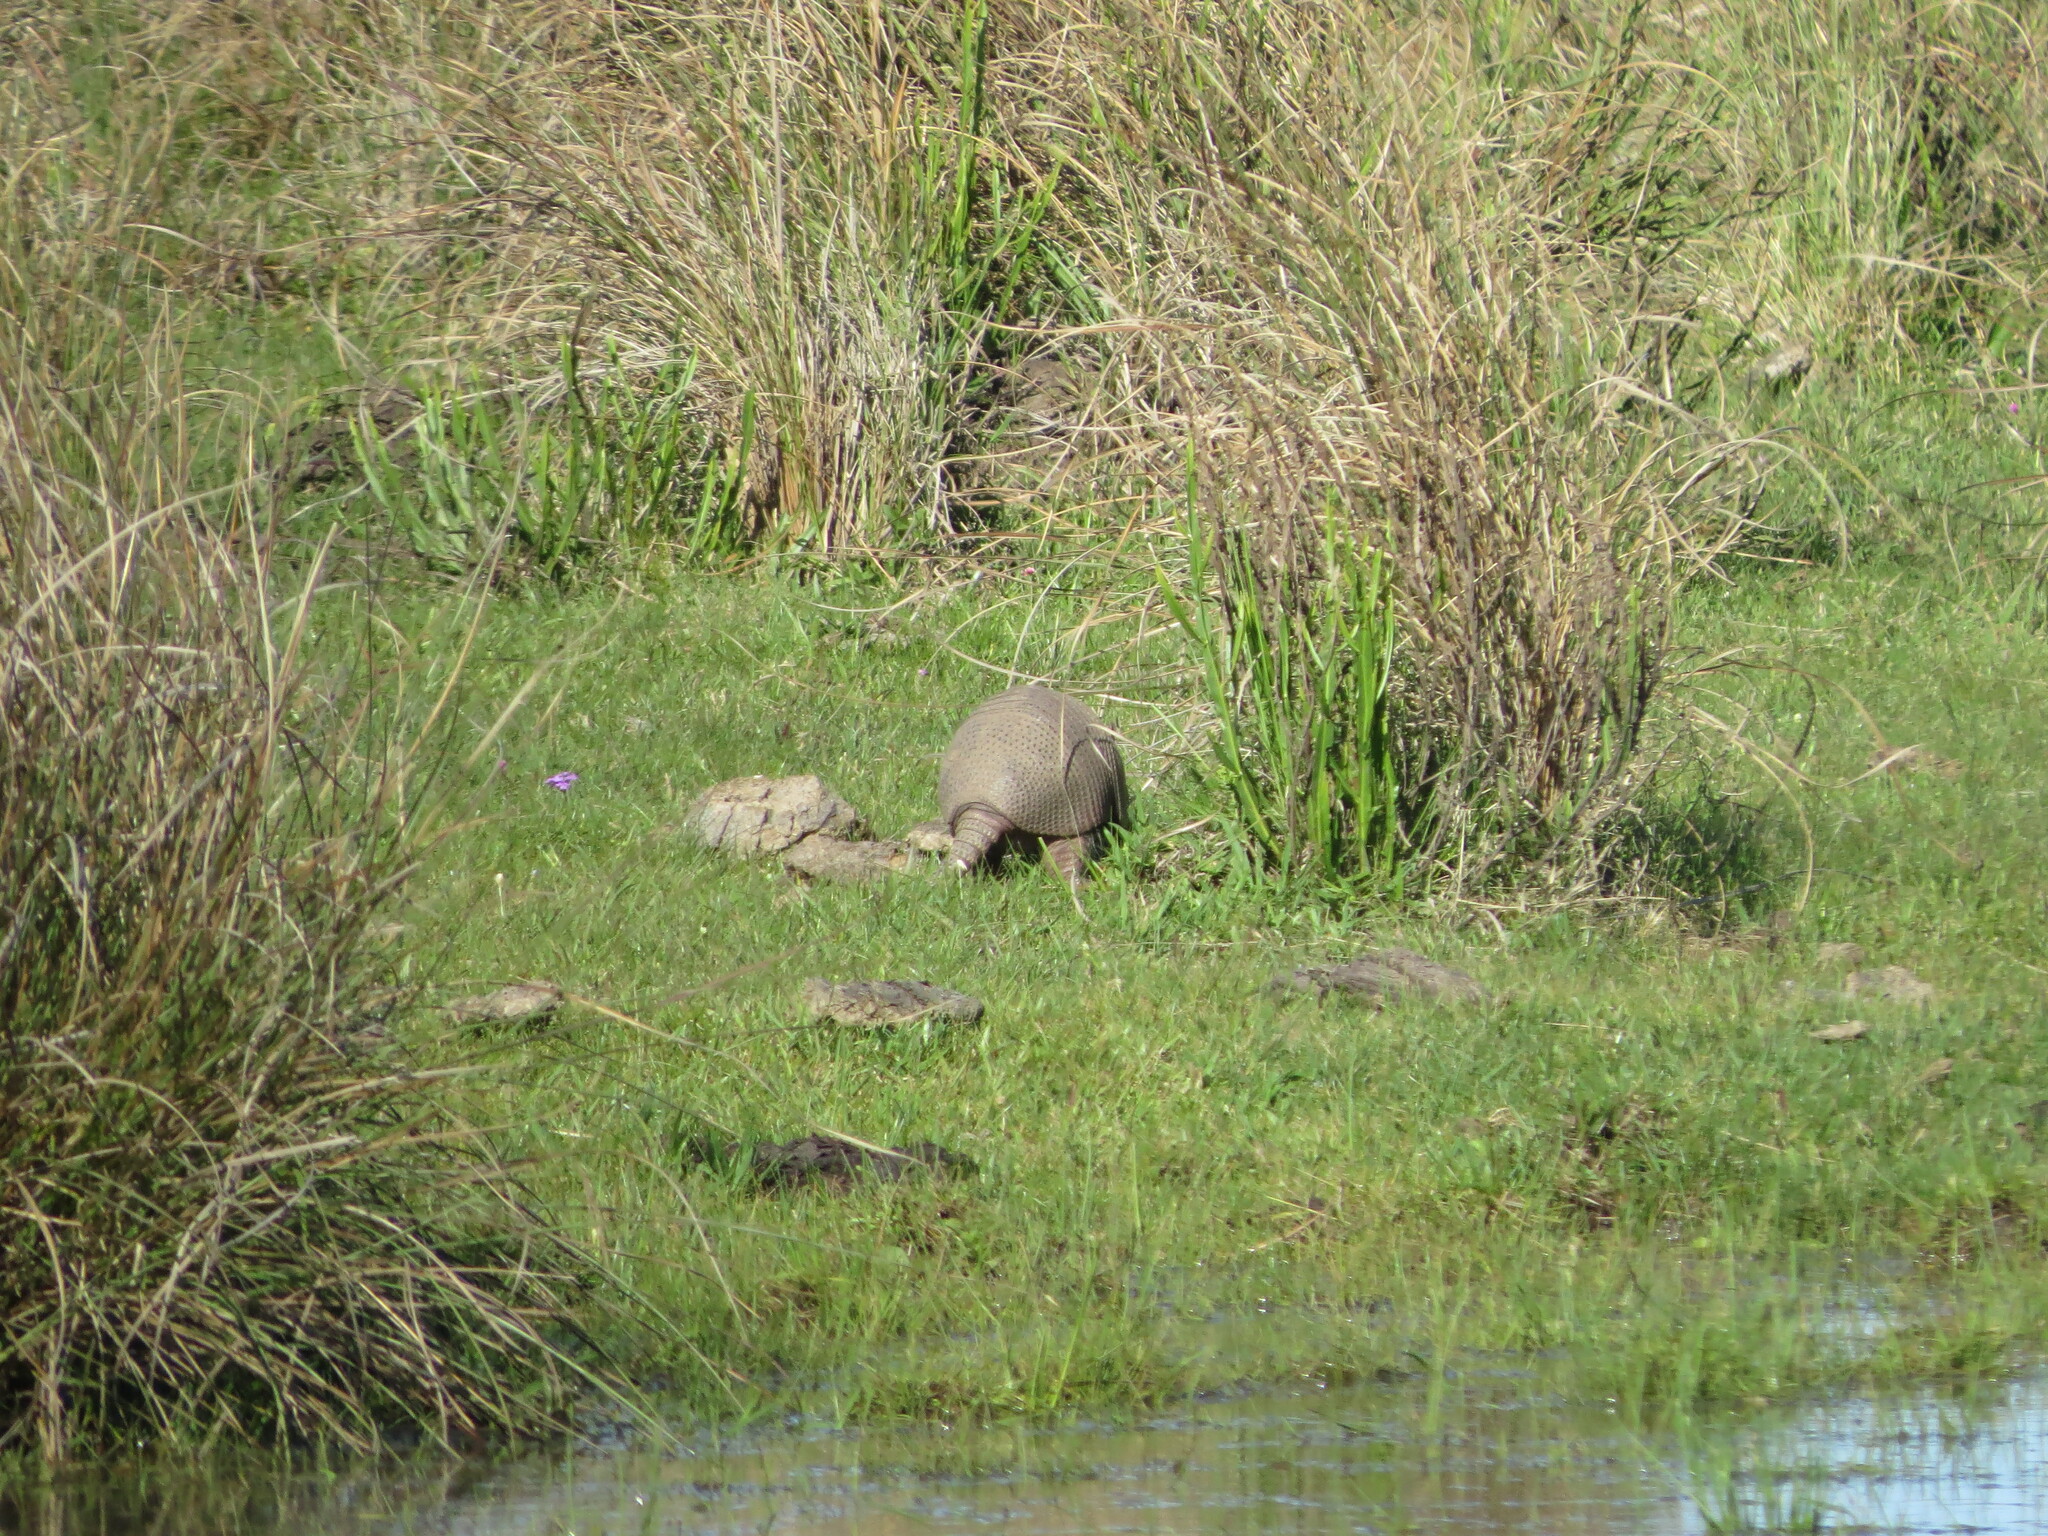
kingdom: Animalia
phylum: Chordata
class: Mammalia
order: Cingulata
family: Dasypodidae
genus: Dasypus
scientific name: Dasypus septemcinctus
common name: Seven-banded armadillo
